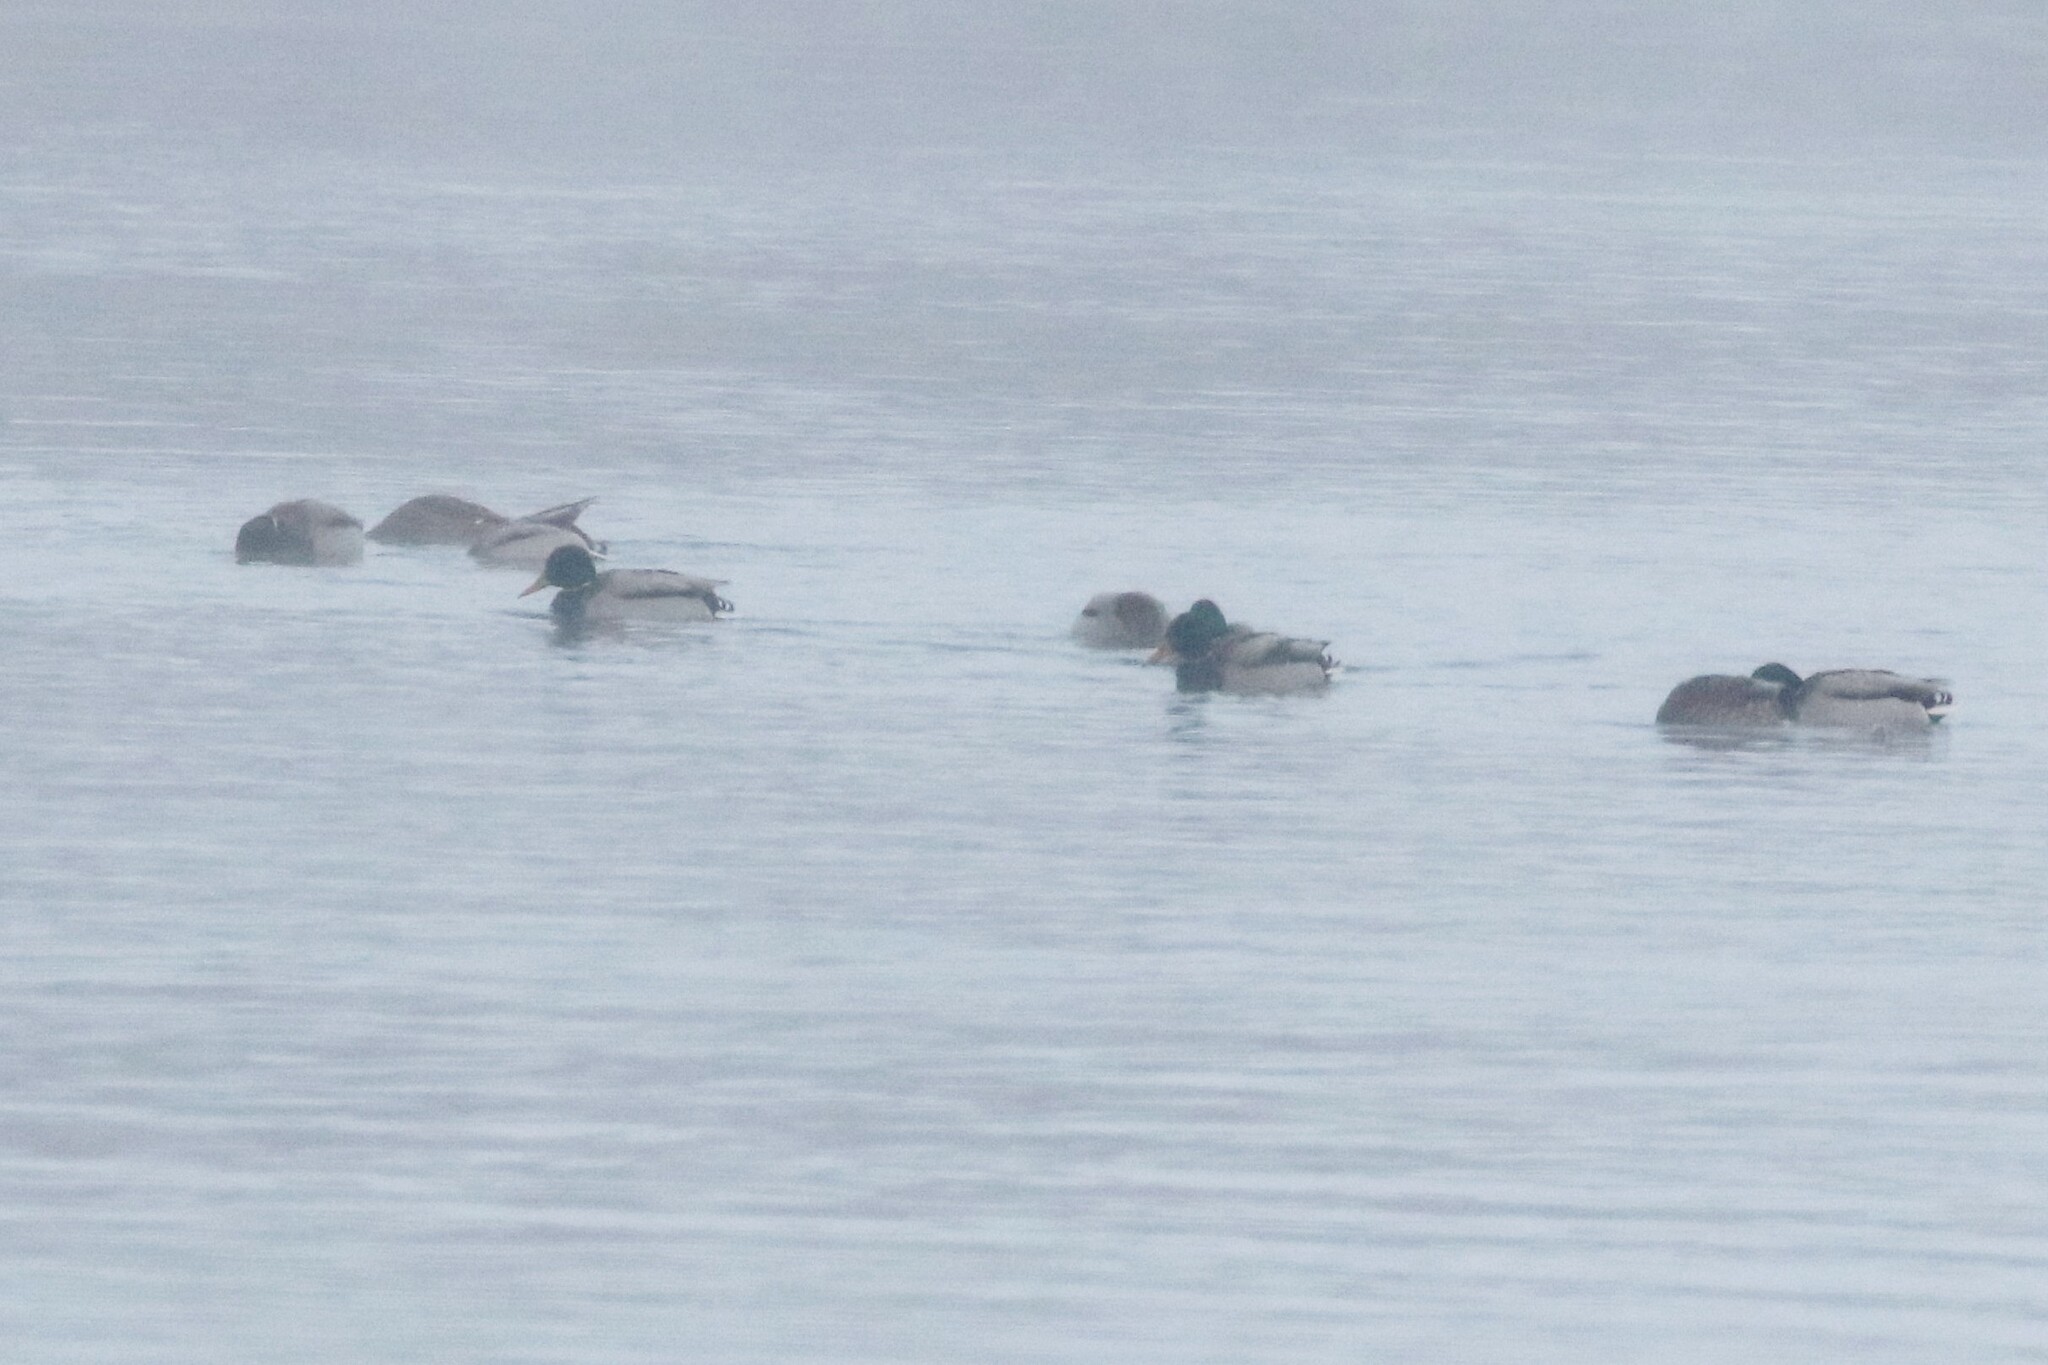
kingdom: Animalia
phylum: Chordata
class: Aves
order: Anseriformes
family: Anatidae
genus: Anas
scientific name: Anas platyrhynchos
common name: Mallard
